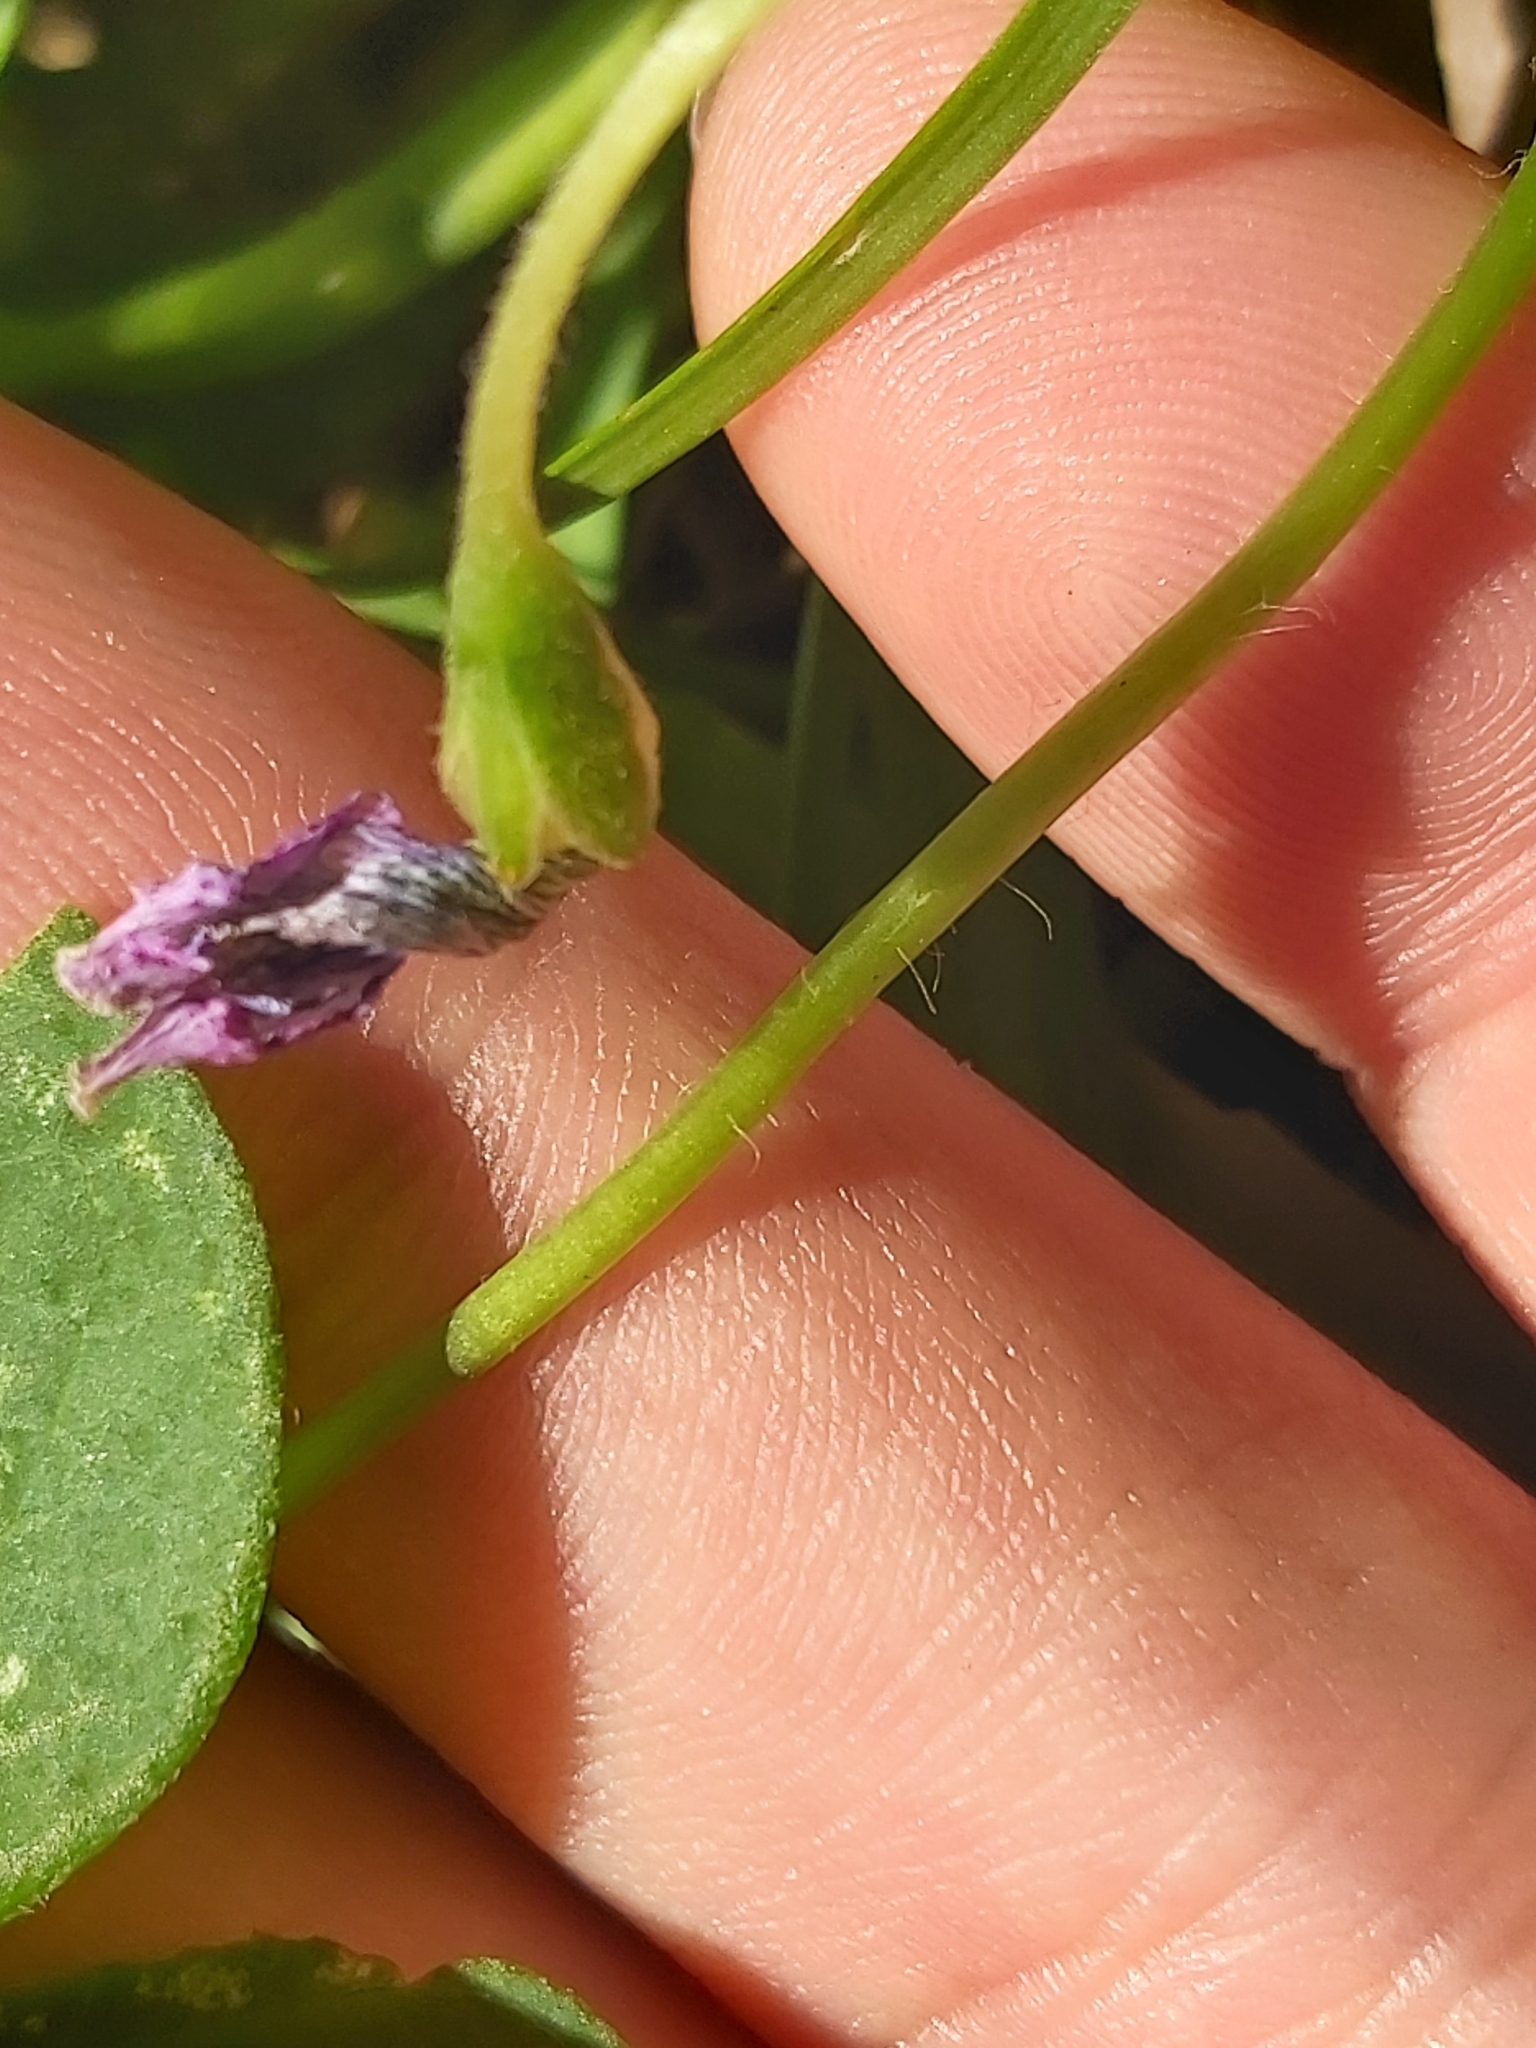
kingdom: Plantae
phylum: Tracheophyta
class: Magnoliopsida
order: Oxalidales
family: Oxalidaceae
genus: Oxalis
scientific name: Oxalis debilis
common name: Large-flowered pink-sorrel
